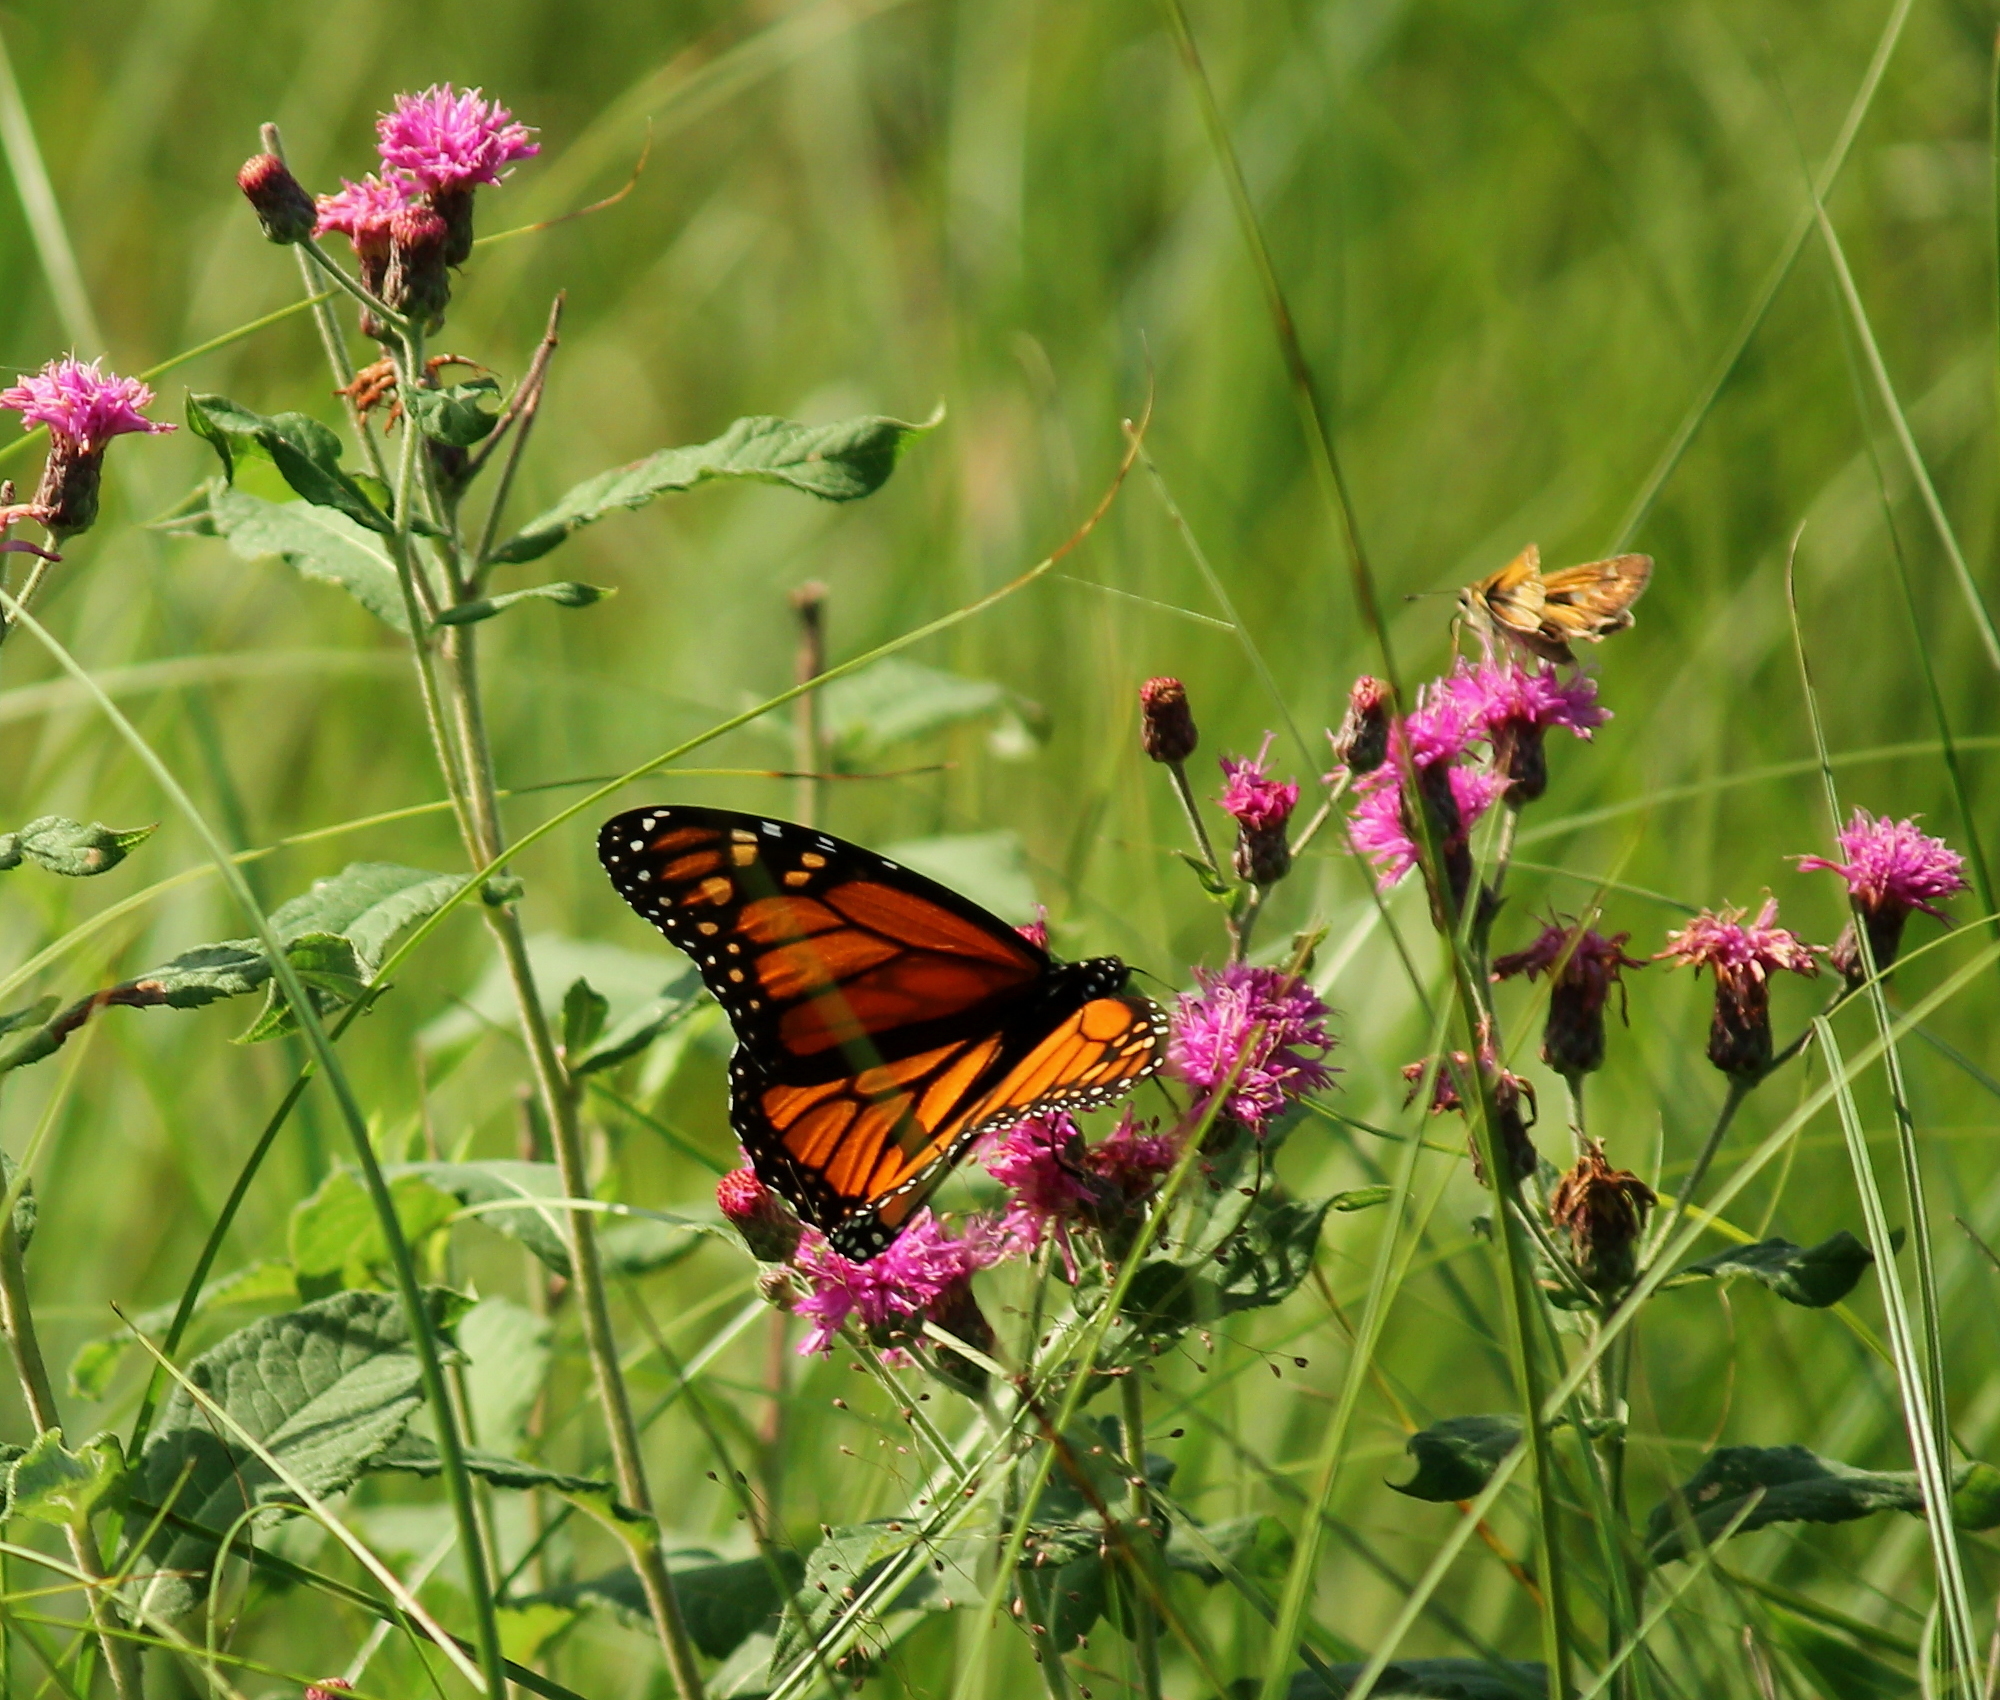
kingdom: Animalia
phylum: Arthropoda
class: Insecta
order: Lepidoptera
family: Nymphalidae
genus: Danaus
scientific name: Danaus plexippus
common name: Monarch
